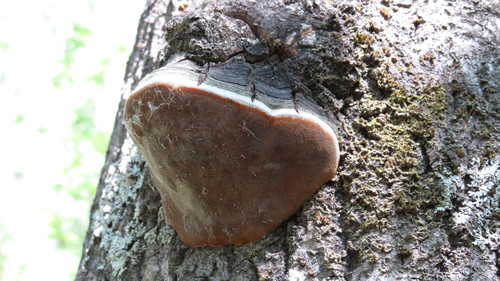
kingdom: Fungi
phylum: Basidiomycota
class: Agaricomycetes
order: Hymenochaetales
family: Hymenochaetaceae
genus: Phellinus
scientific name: Phellinus tremulae
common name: Aspen bracket
